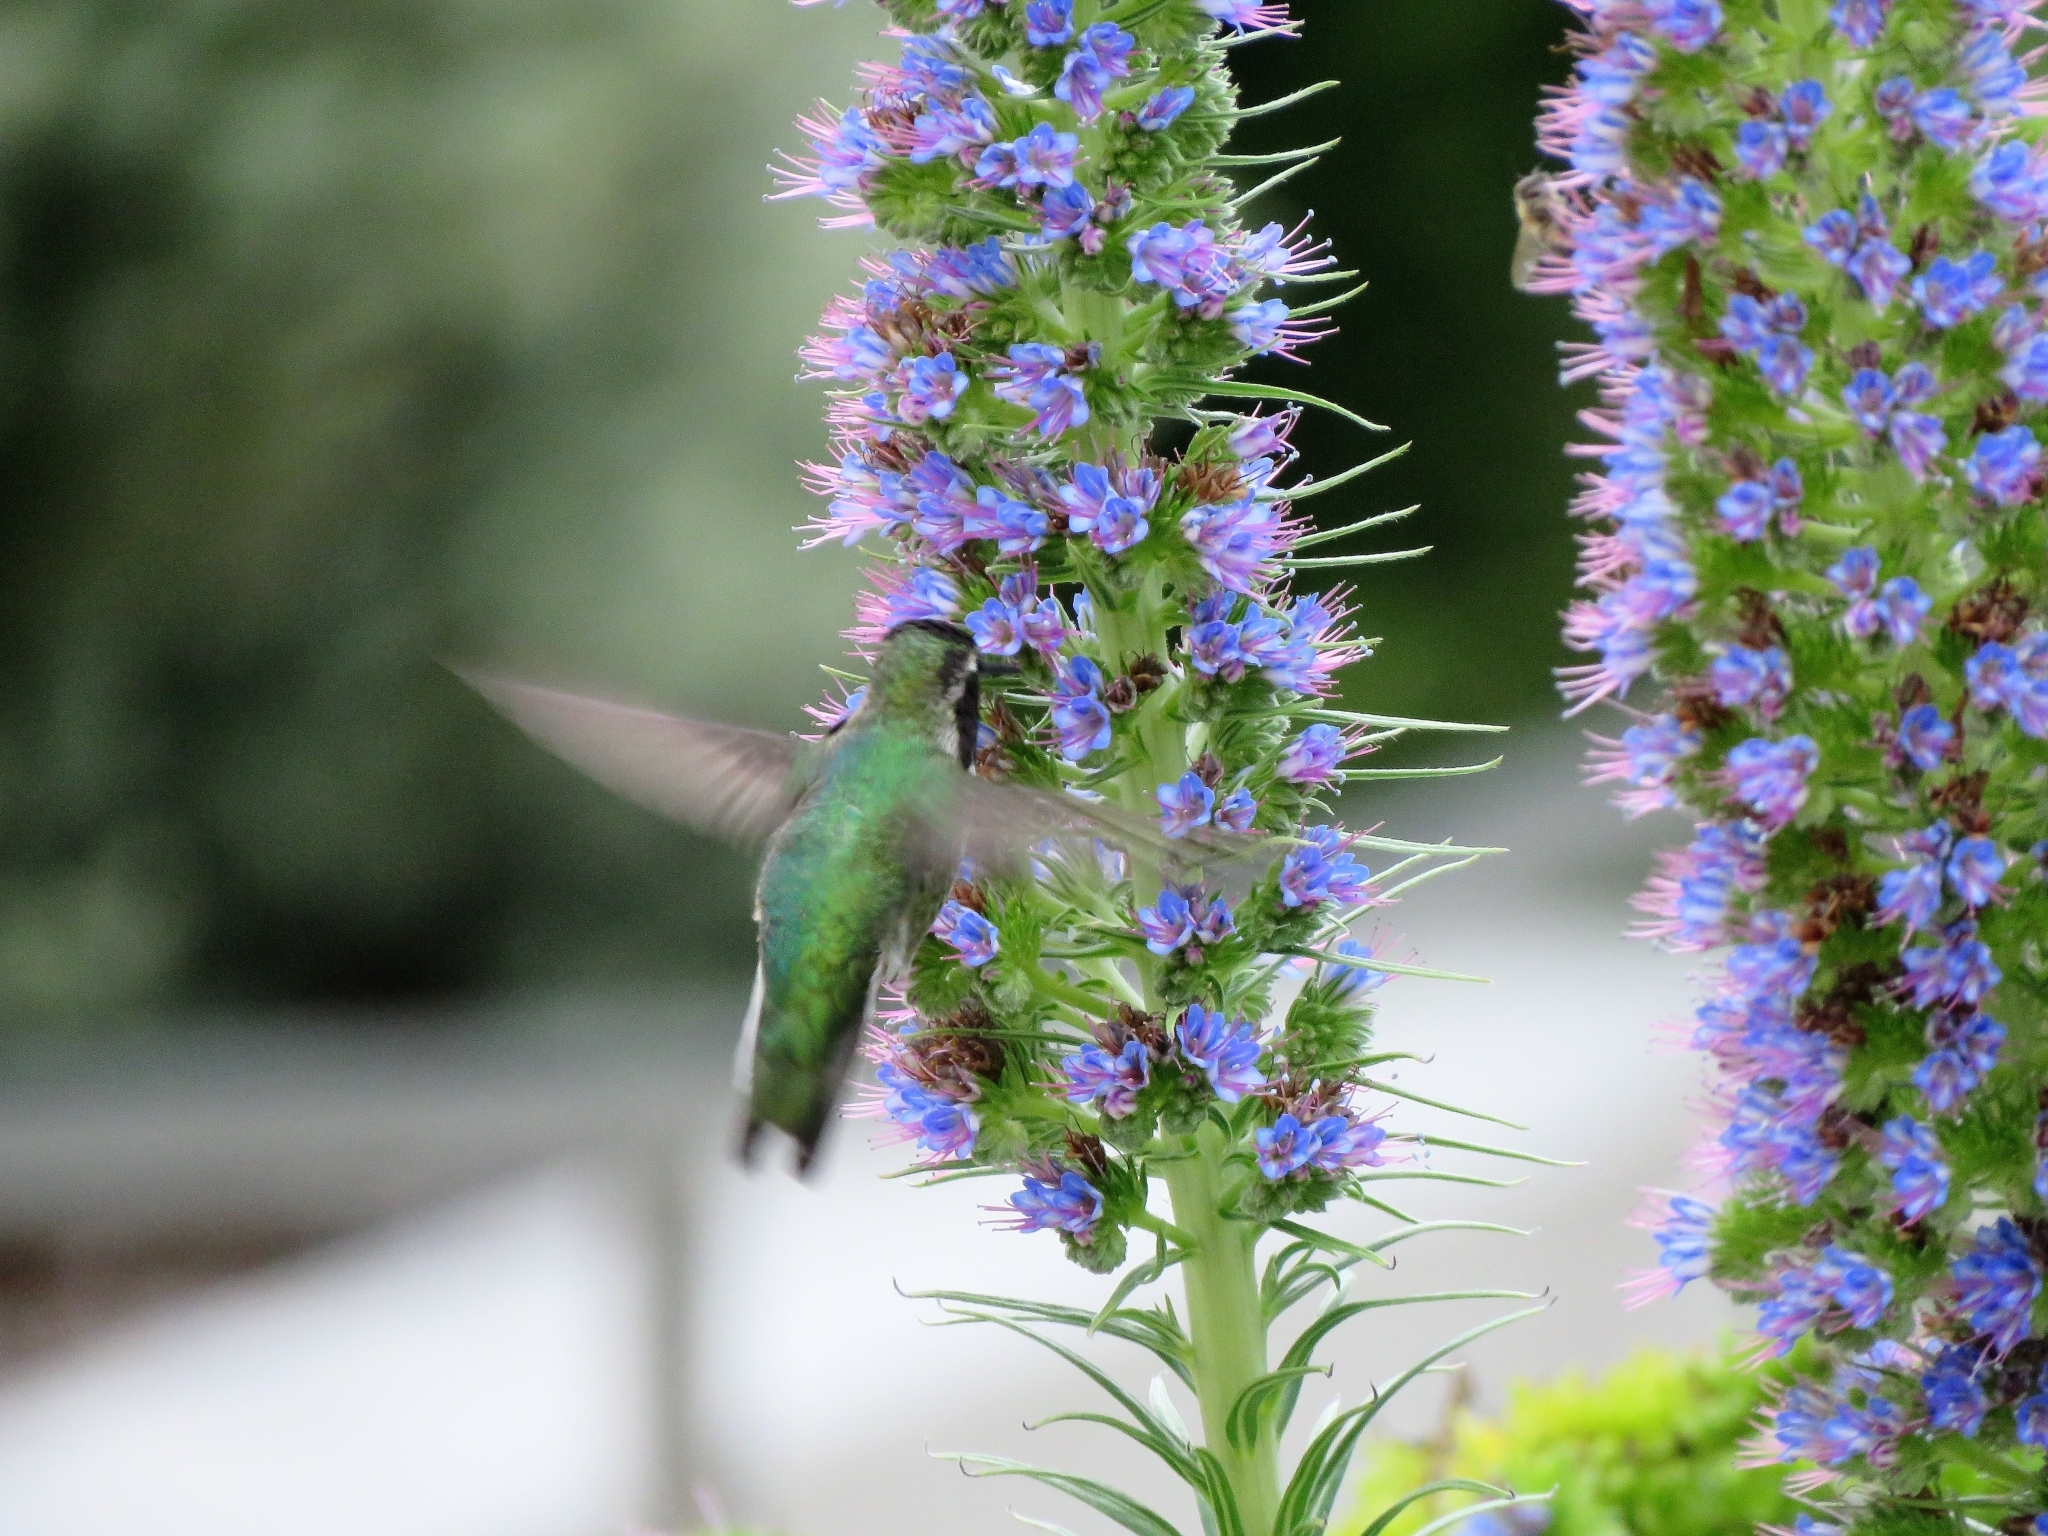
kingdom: Animalia
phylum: Chordata
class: Aves
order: Apodiformes
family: Trochilidae
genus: Calypte
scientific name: Calypte anna
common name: Anna's hummingbird
